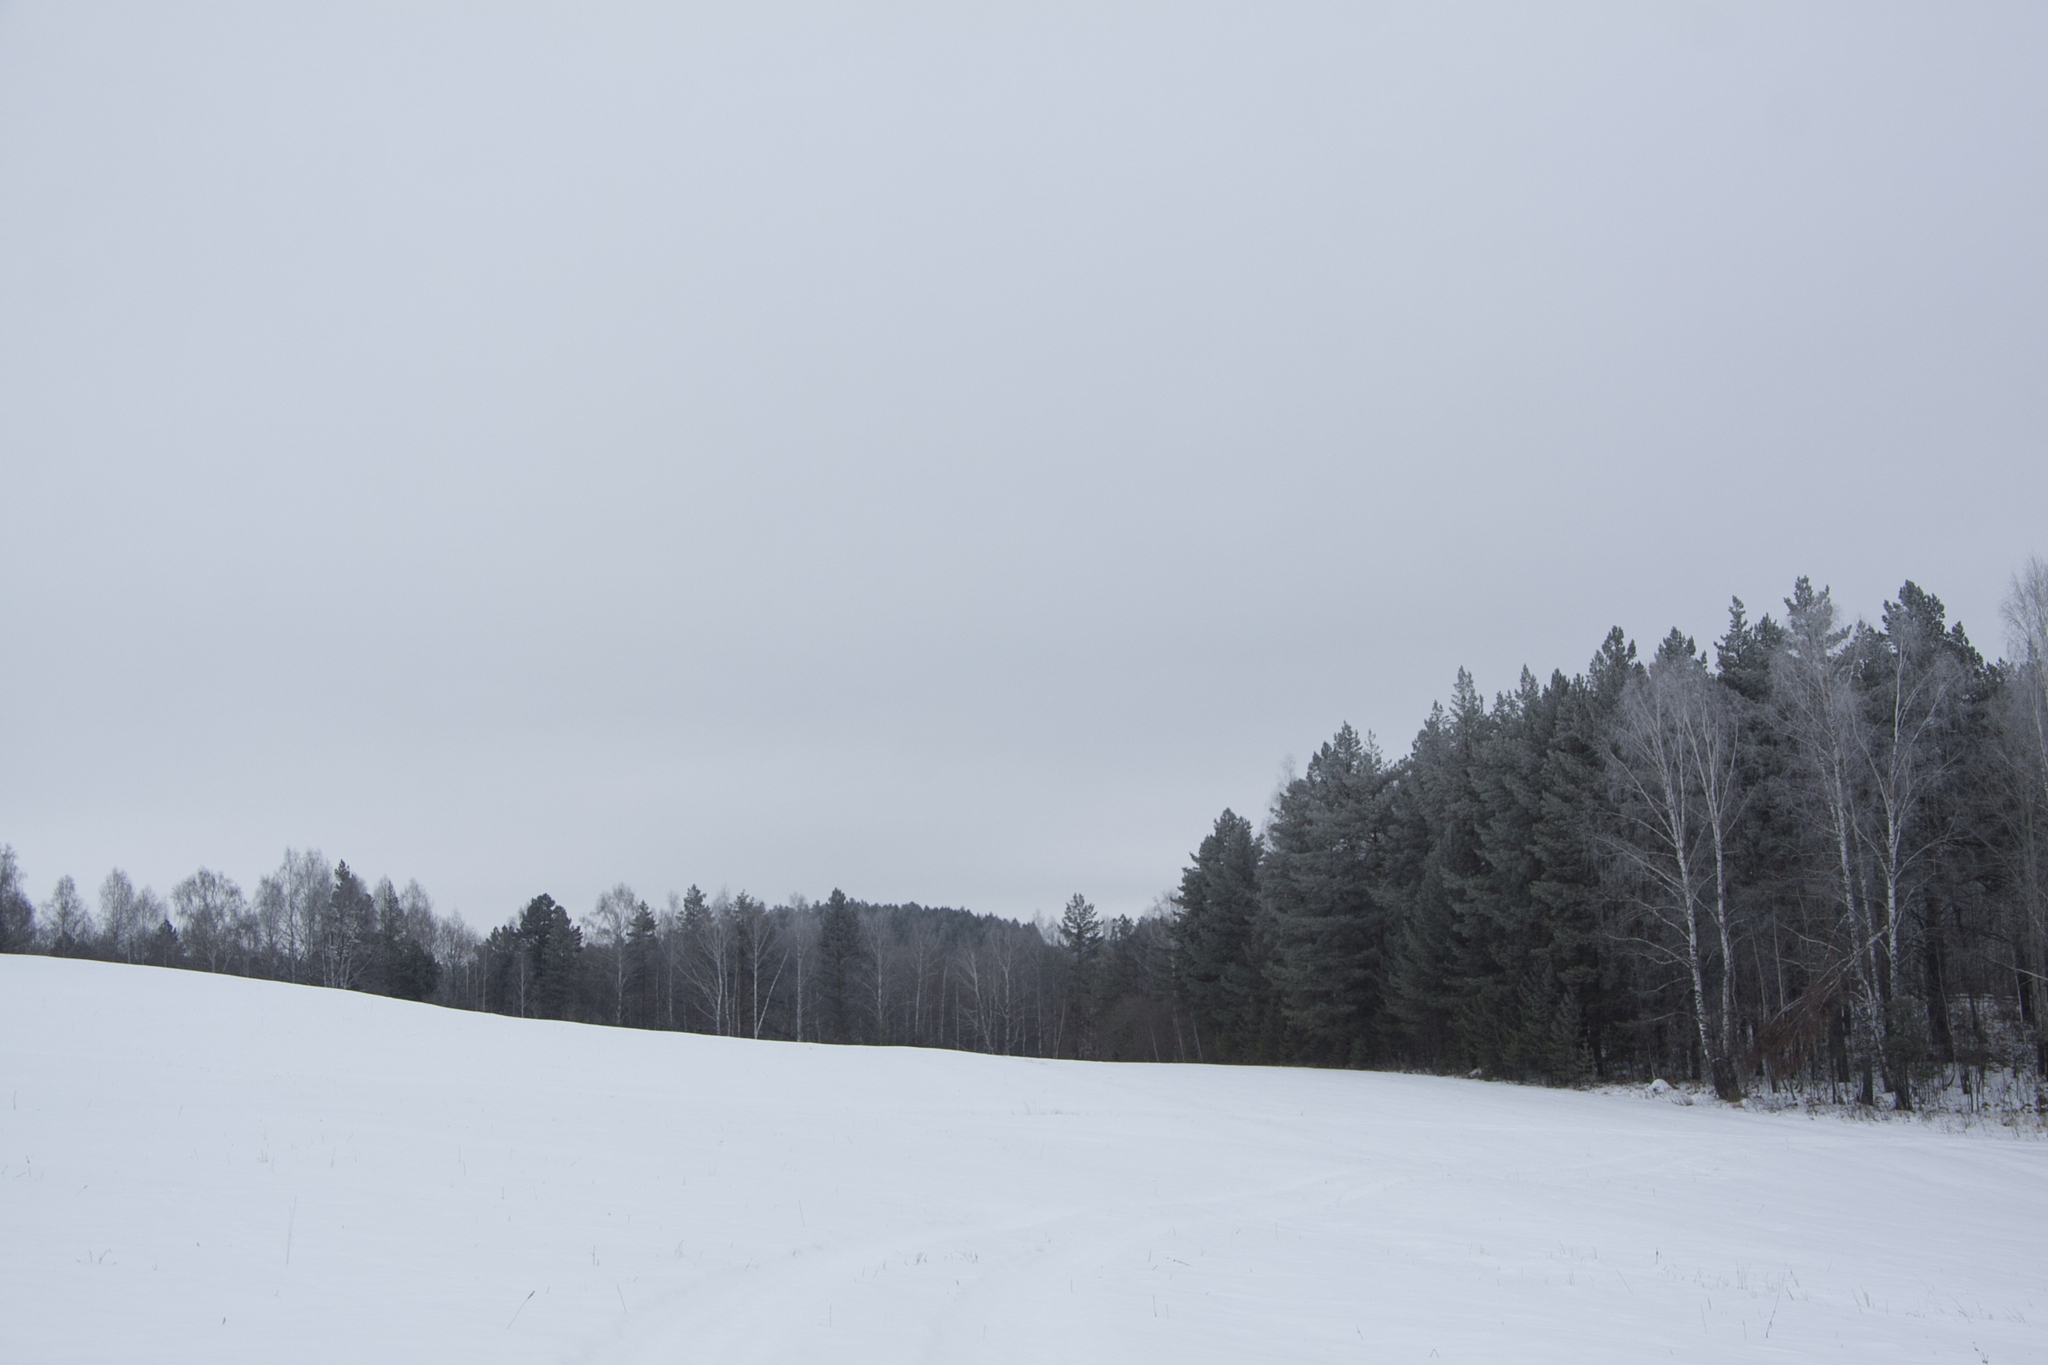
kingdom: Plantae
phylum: Tracheophyta
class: Pinopsida
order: Pinales
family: Pinaceae
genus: Pinus
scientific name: Pinus sylvestris
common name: Scots pine
